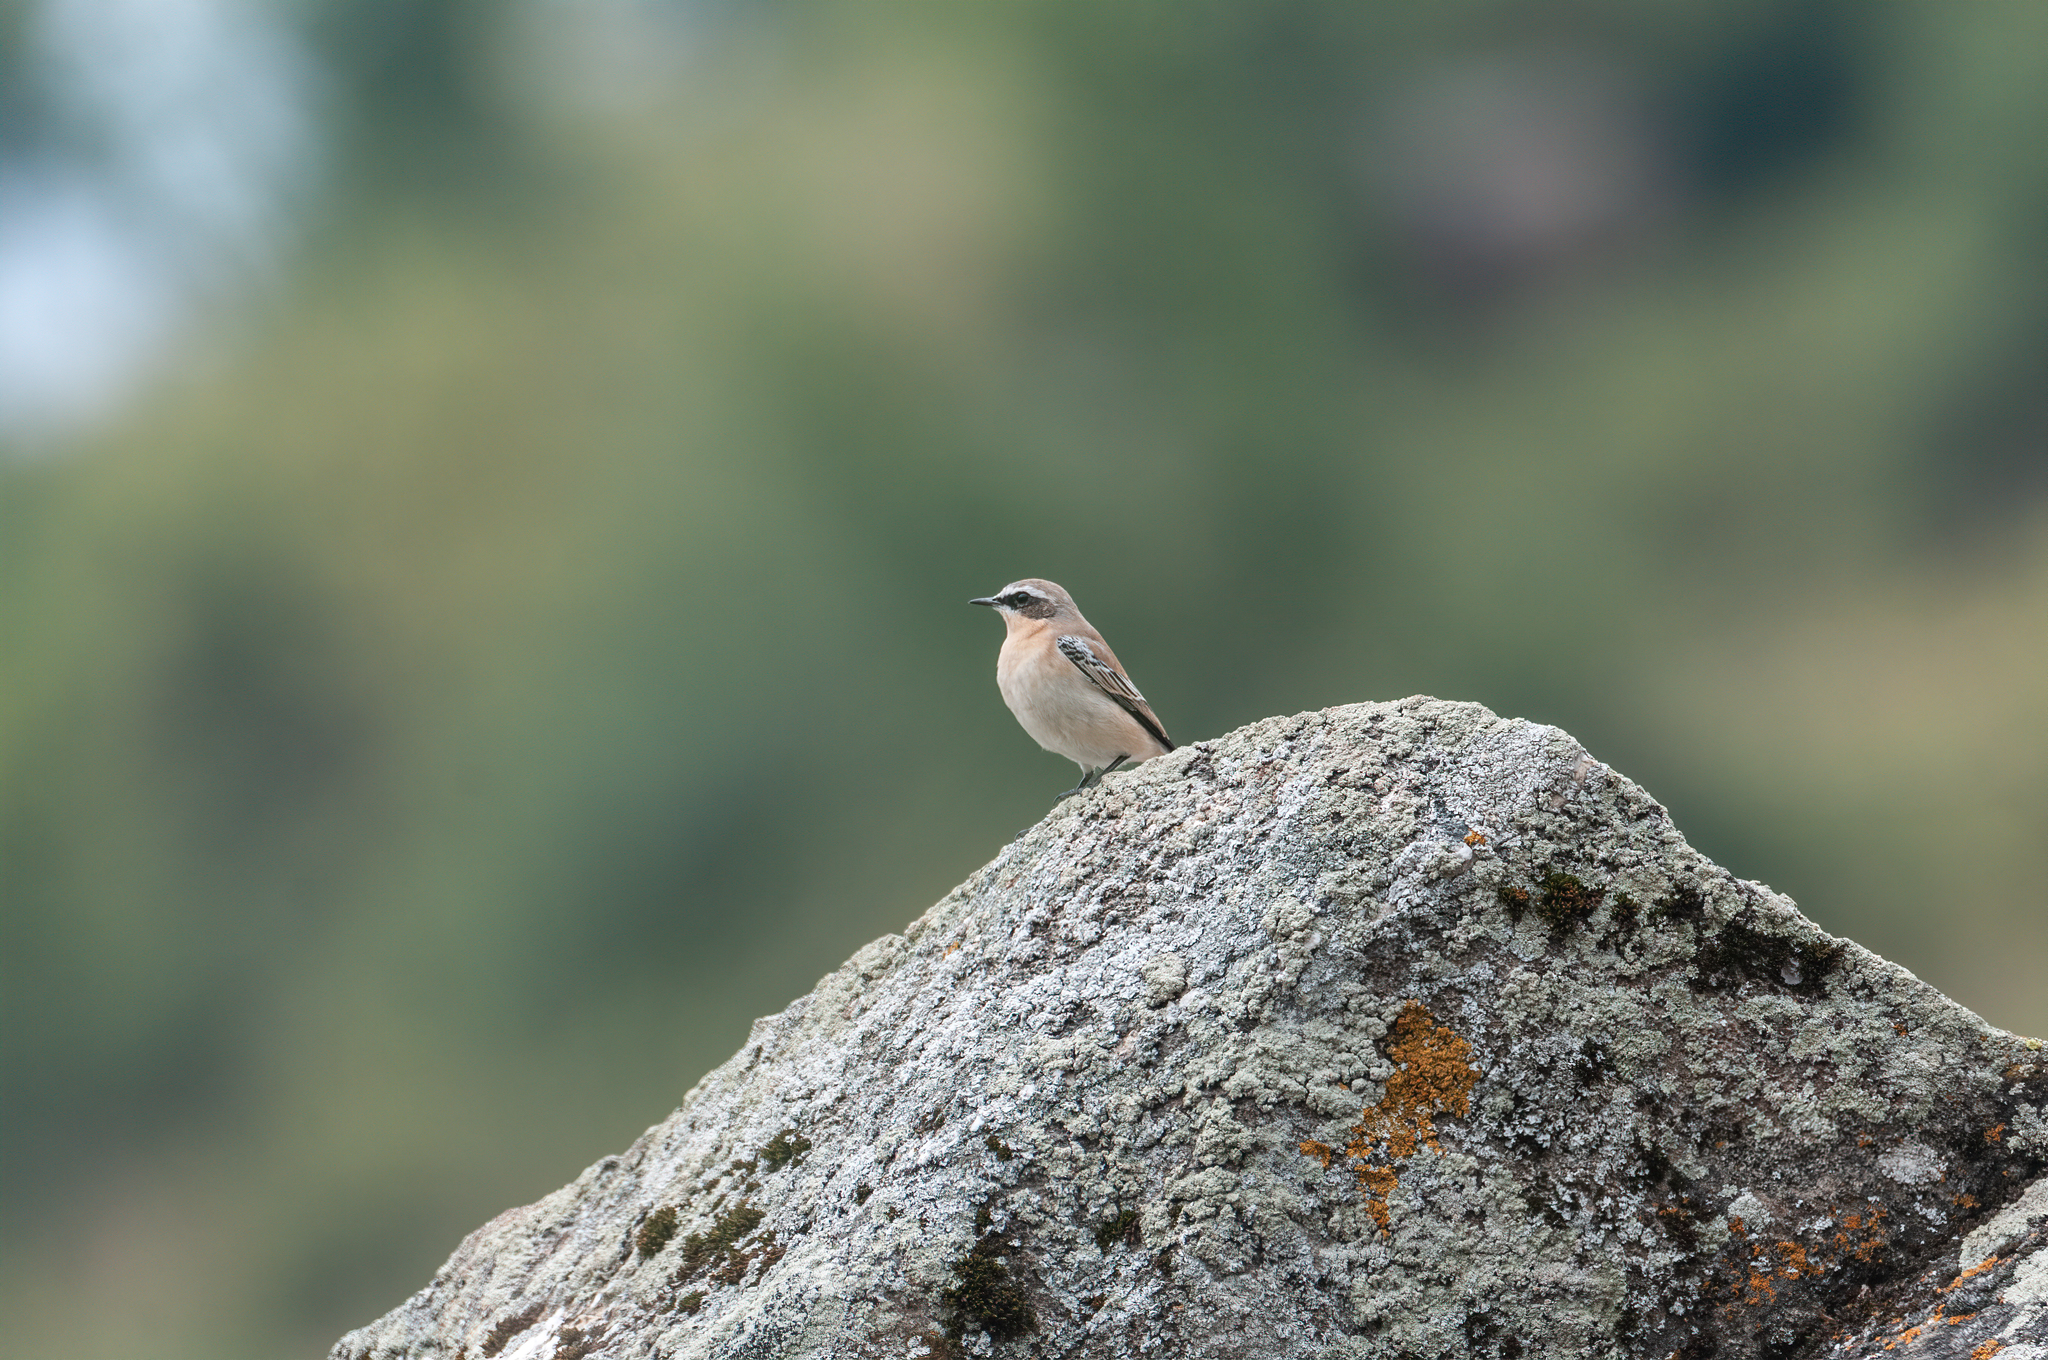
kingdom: Animalia
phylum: Chordata
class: Aves
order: Passeriformes
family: Muscicapidae
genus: Oenanthe
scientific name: Oenanthe oenanthe
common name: Northern wheatear
